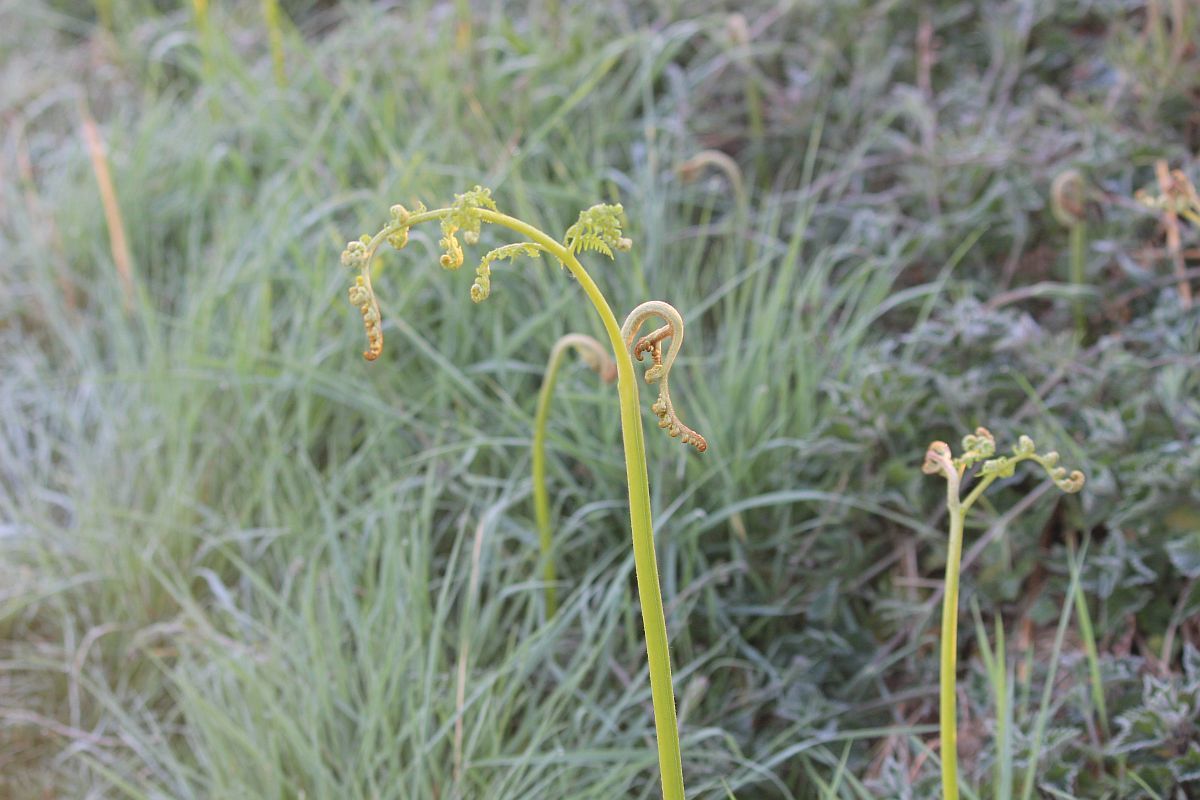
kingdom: Plantae
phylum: Tracheophyta
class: Polypodiopsida
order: Polypodiales
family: Dennstaedtiaceae
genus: Pteridium
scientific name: Pteridium aquilinum
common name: Bracken
